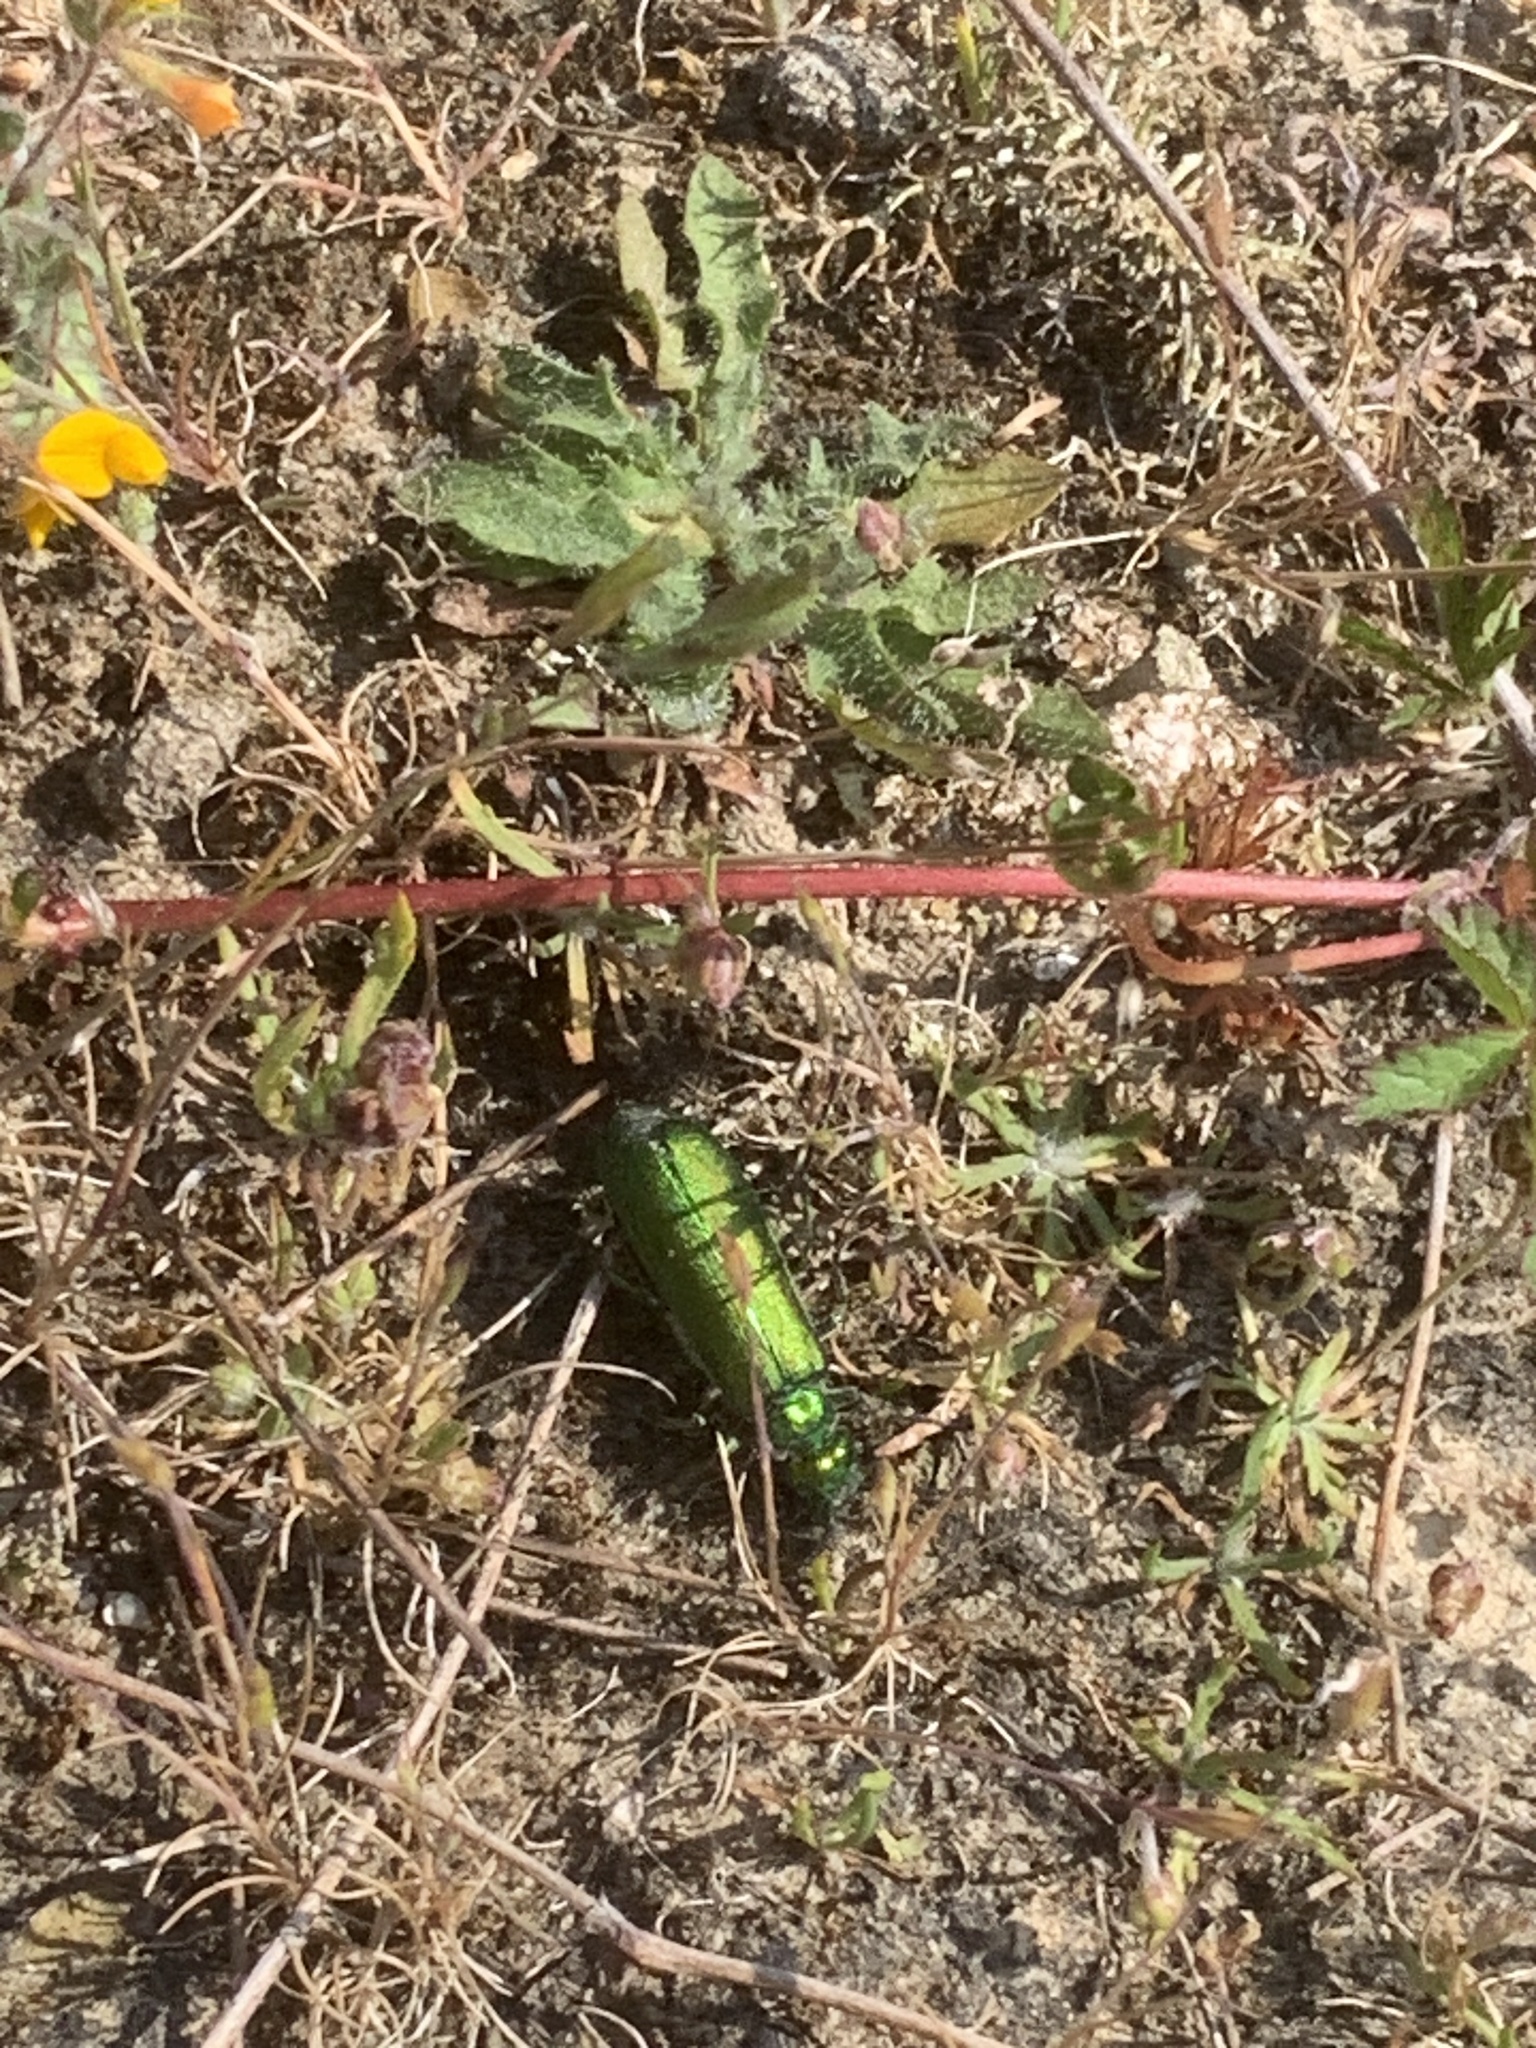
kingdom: Animalia
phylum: Arthropoda
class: Insecta
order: Coleoptera
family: Meloidae
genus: Lytta
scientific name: Lytta vesicatoria
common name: Spanish fly
